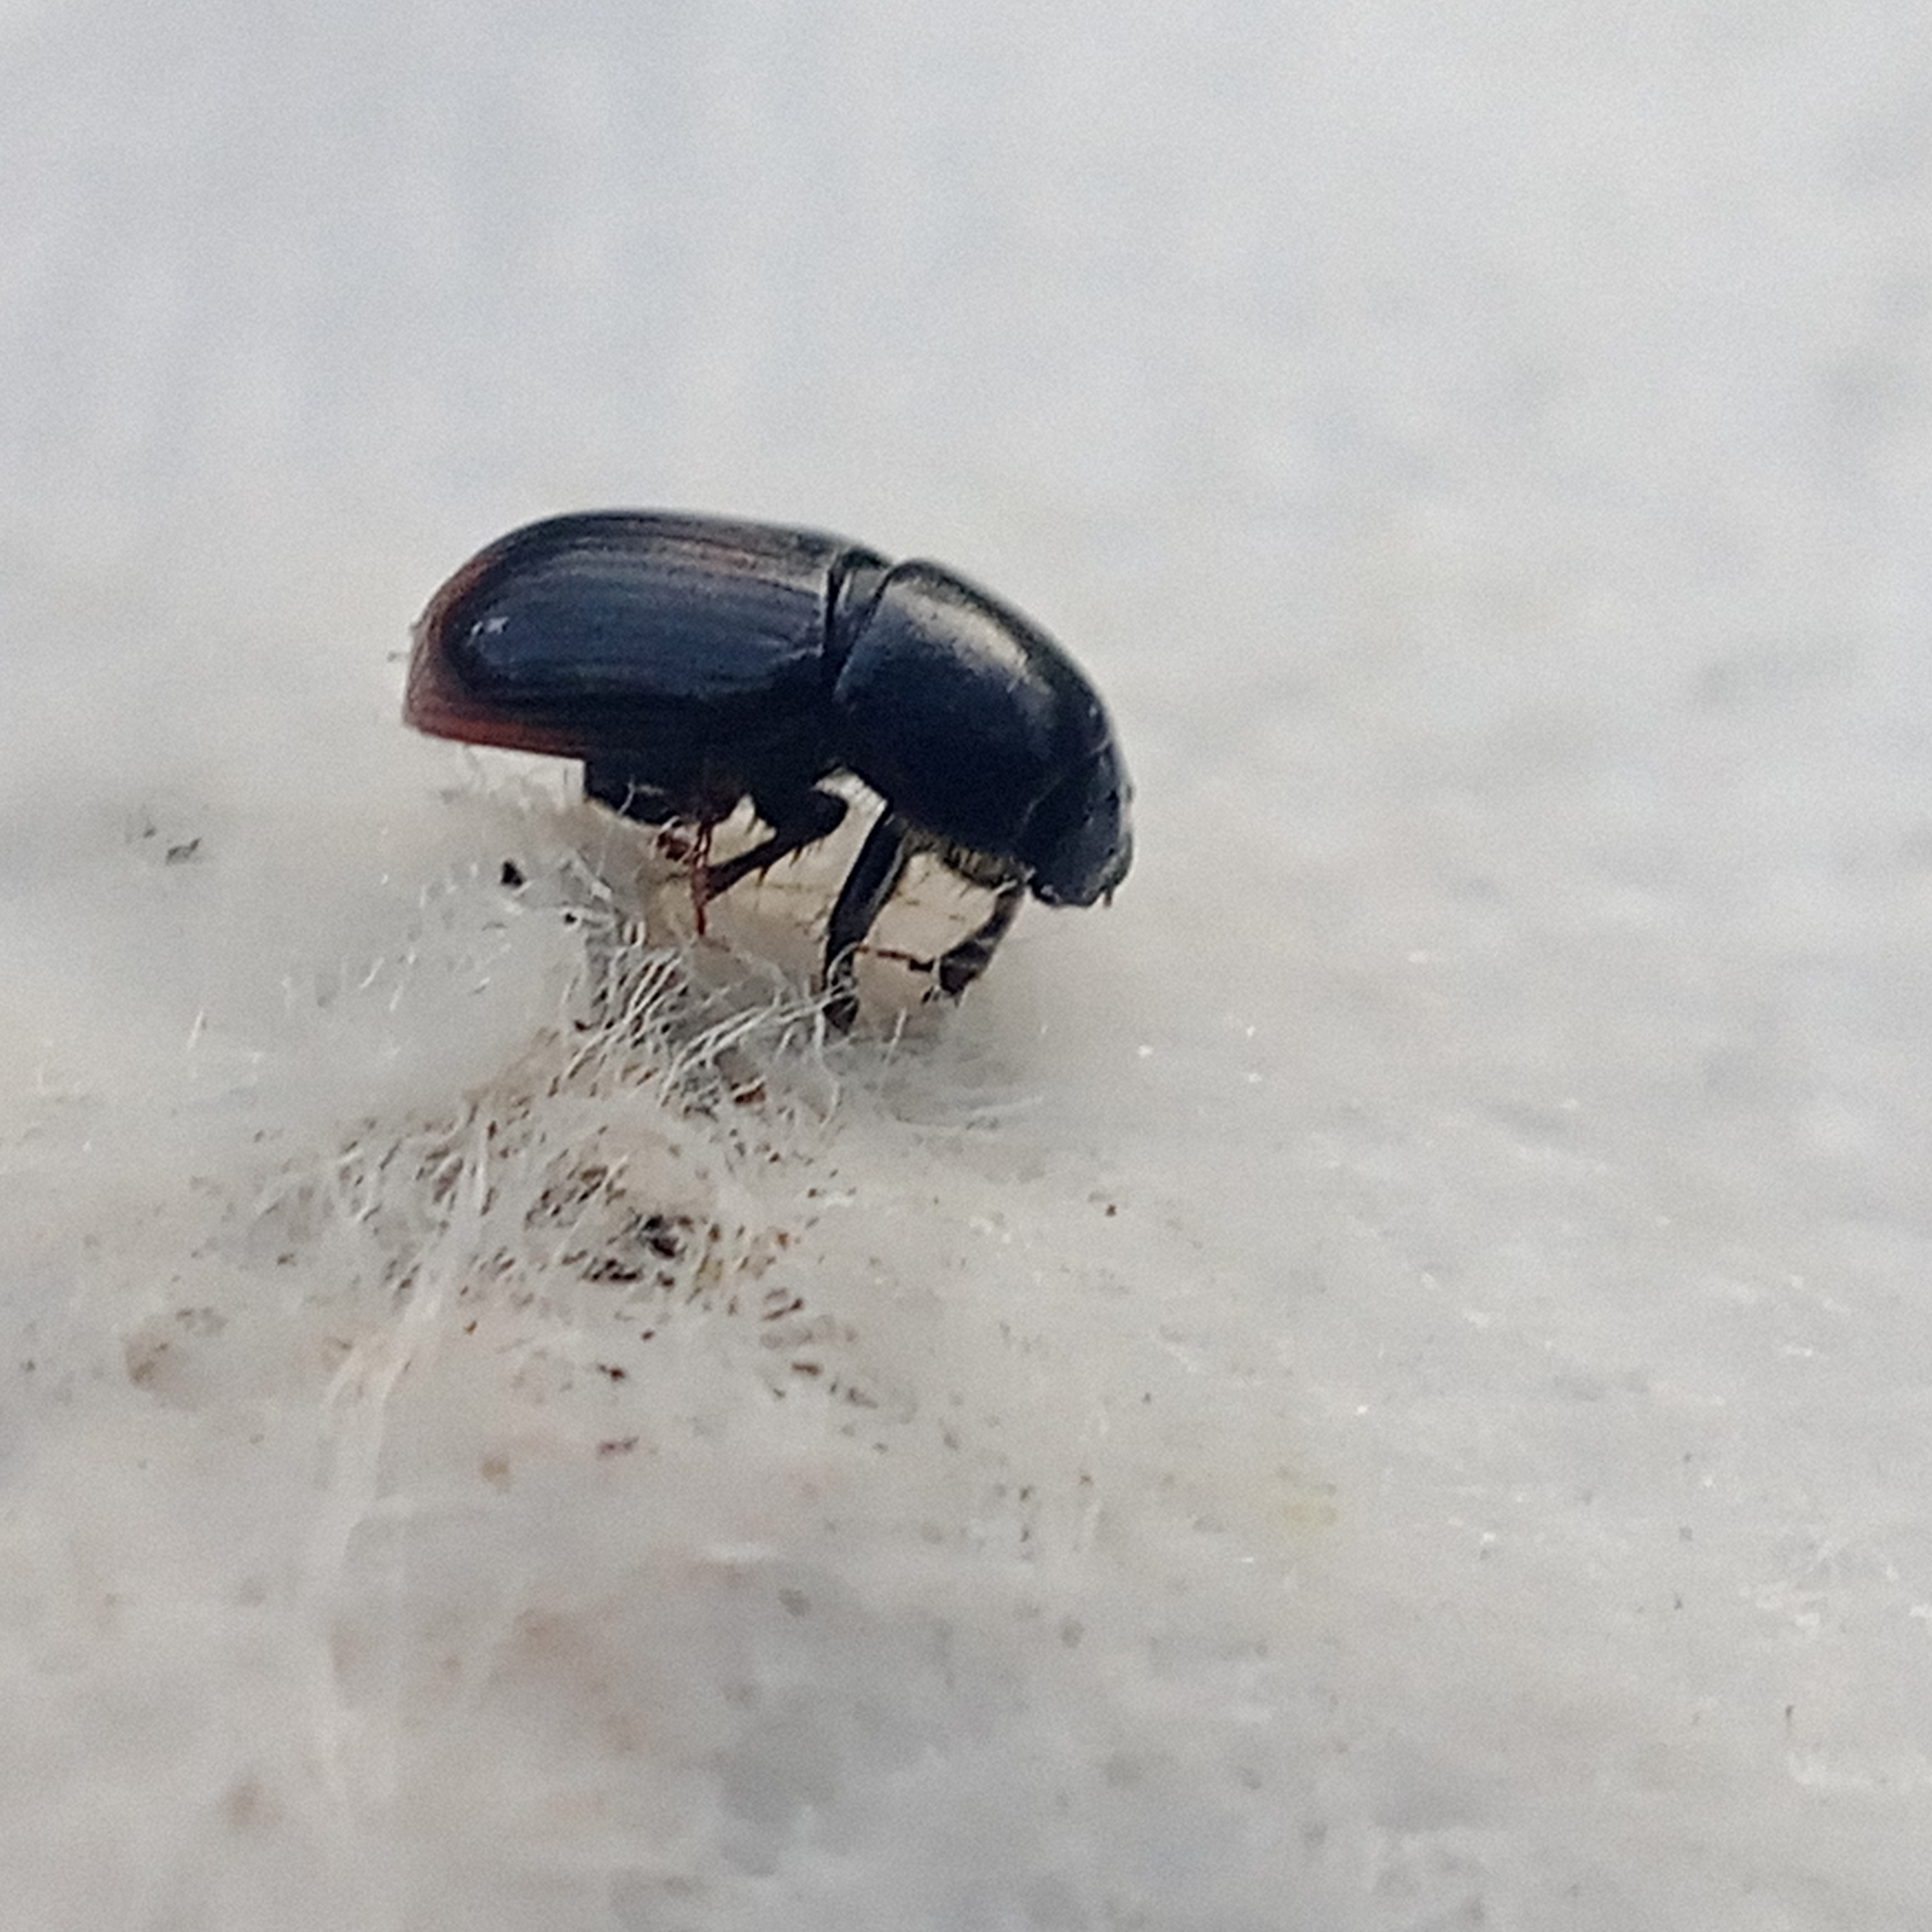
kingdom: Animalia
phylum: Arthropoda
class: Insecta
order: Coleoptera
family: Scarabaeidae
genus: Phaeaphodius
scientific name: Phaeaphodius rectus
